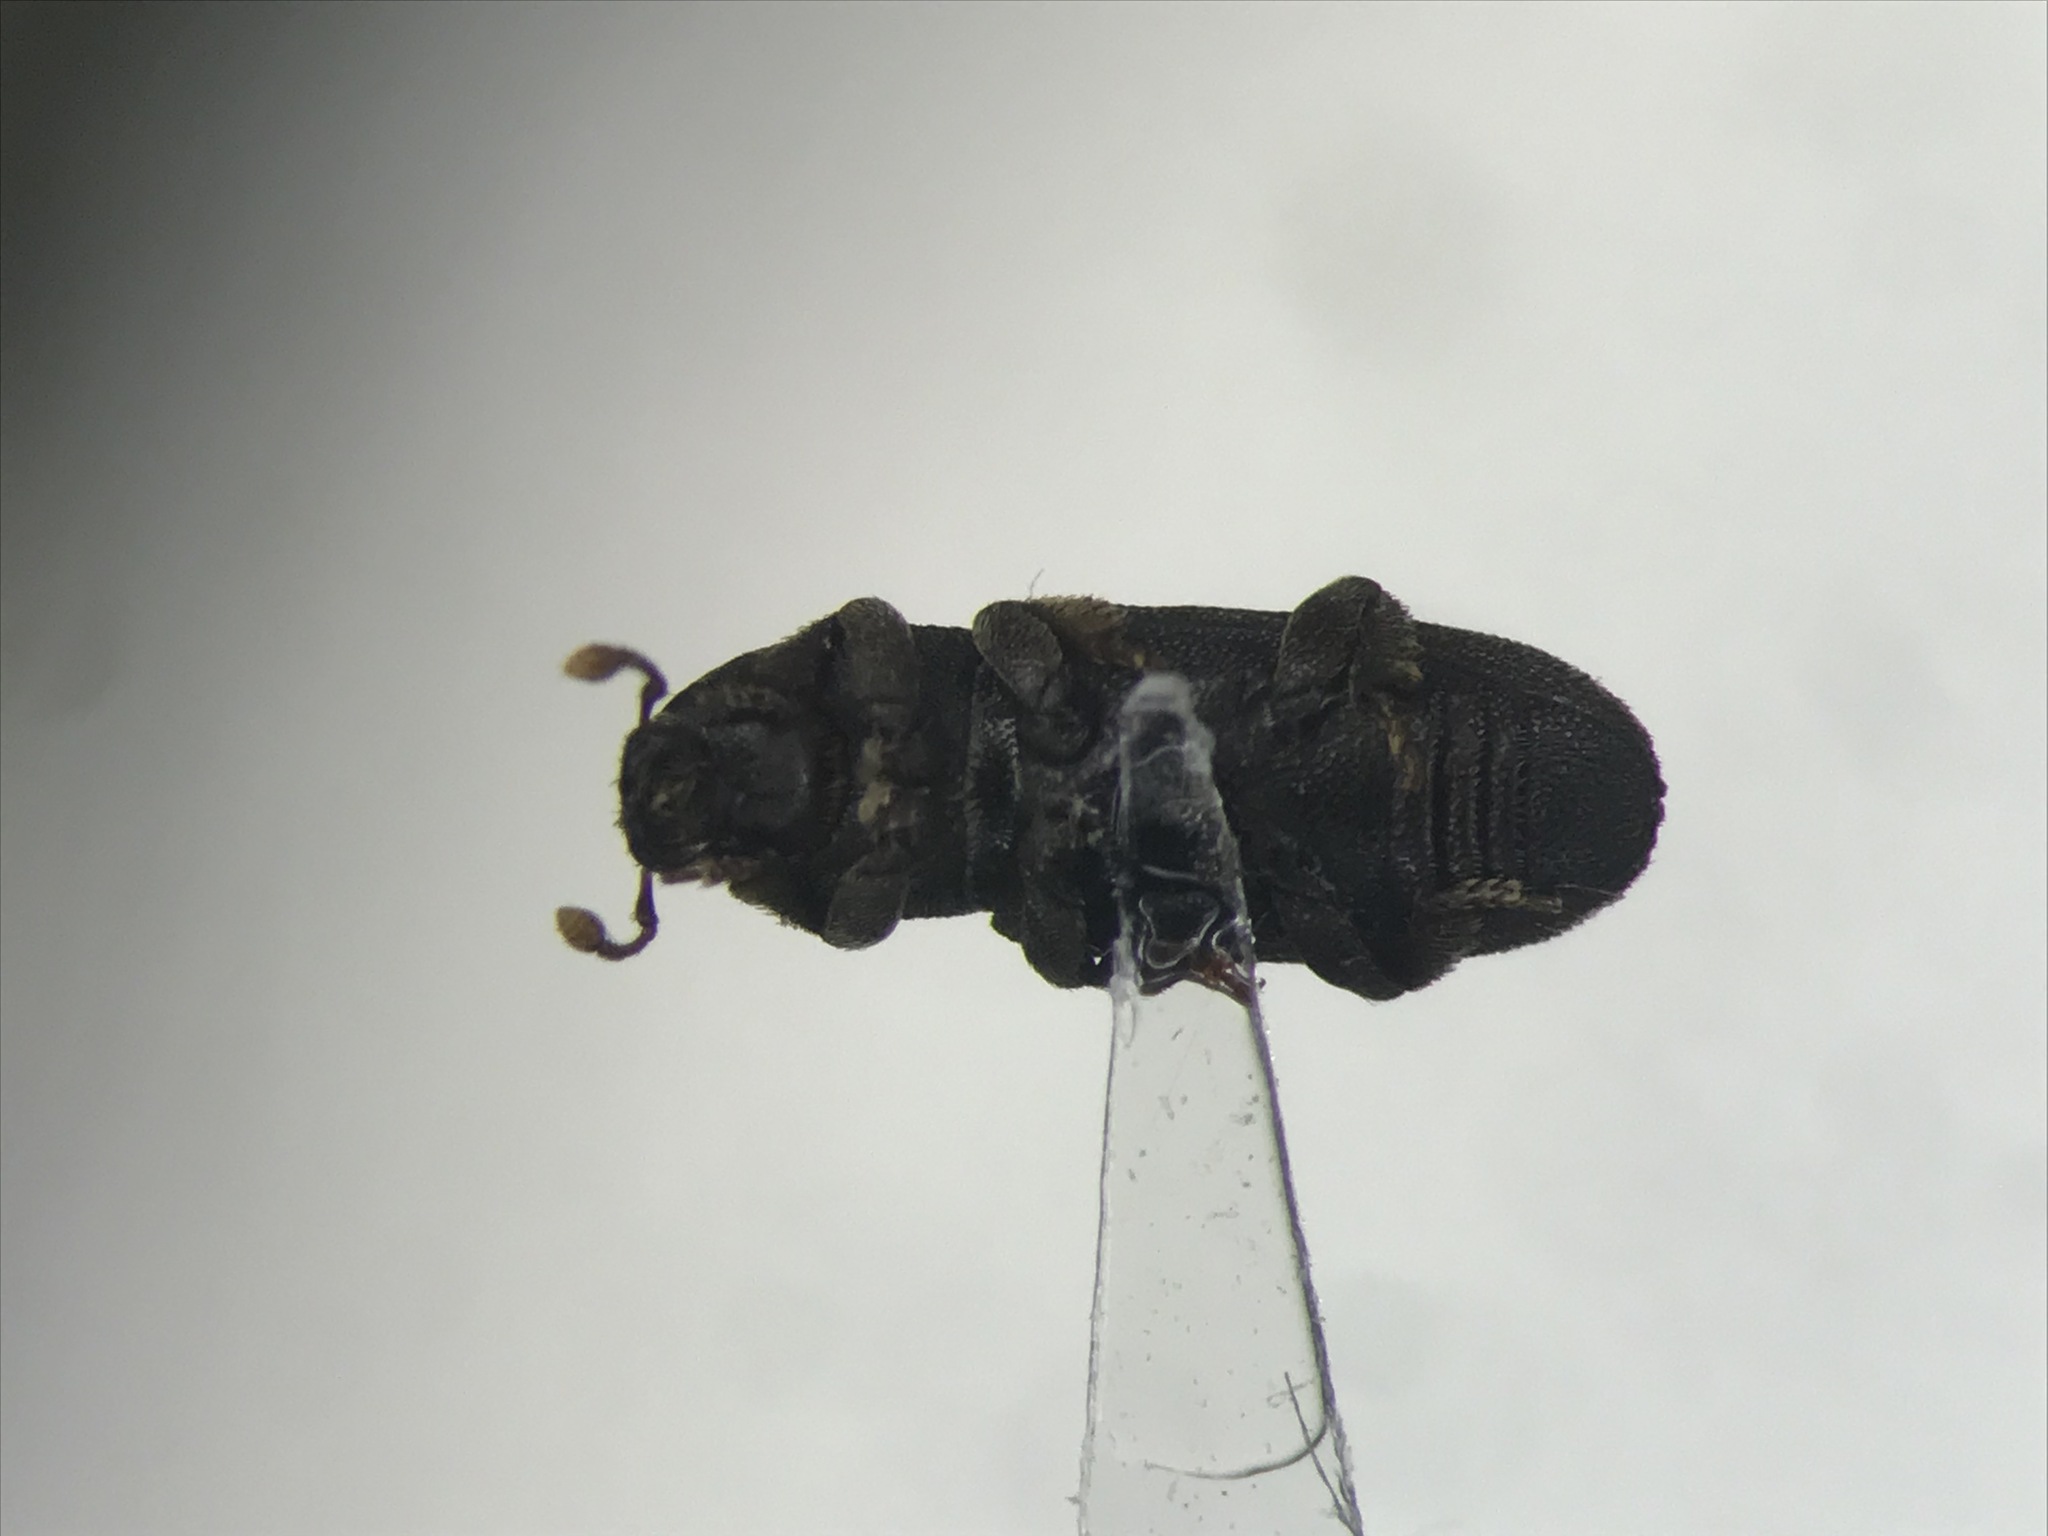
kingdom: Animalia
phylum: Arthropoda
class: Insecta
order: Coleoptera
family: Curculionidae
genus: Hylastes
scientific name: Hylastes porculus
